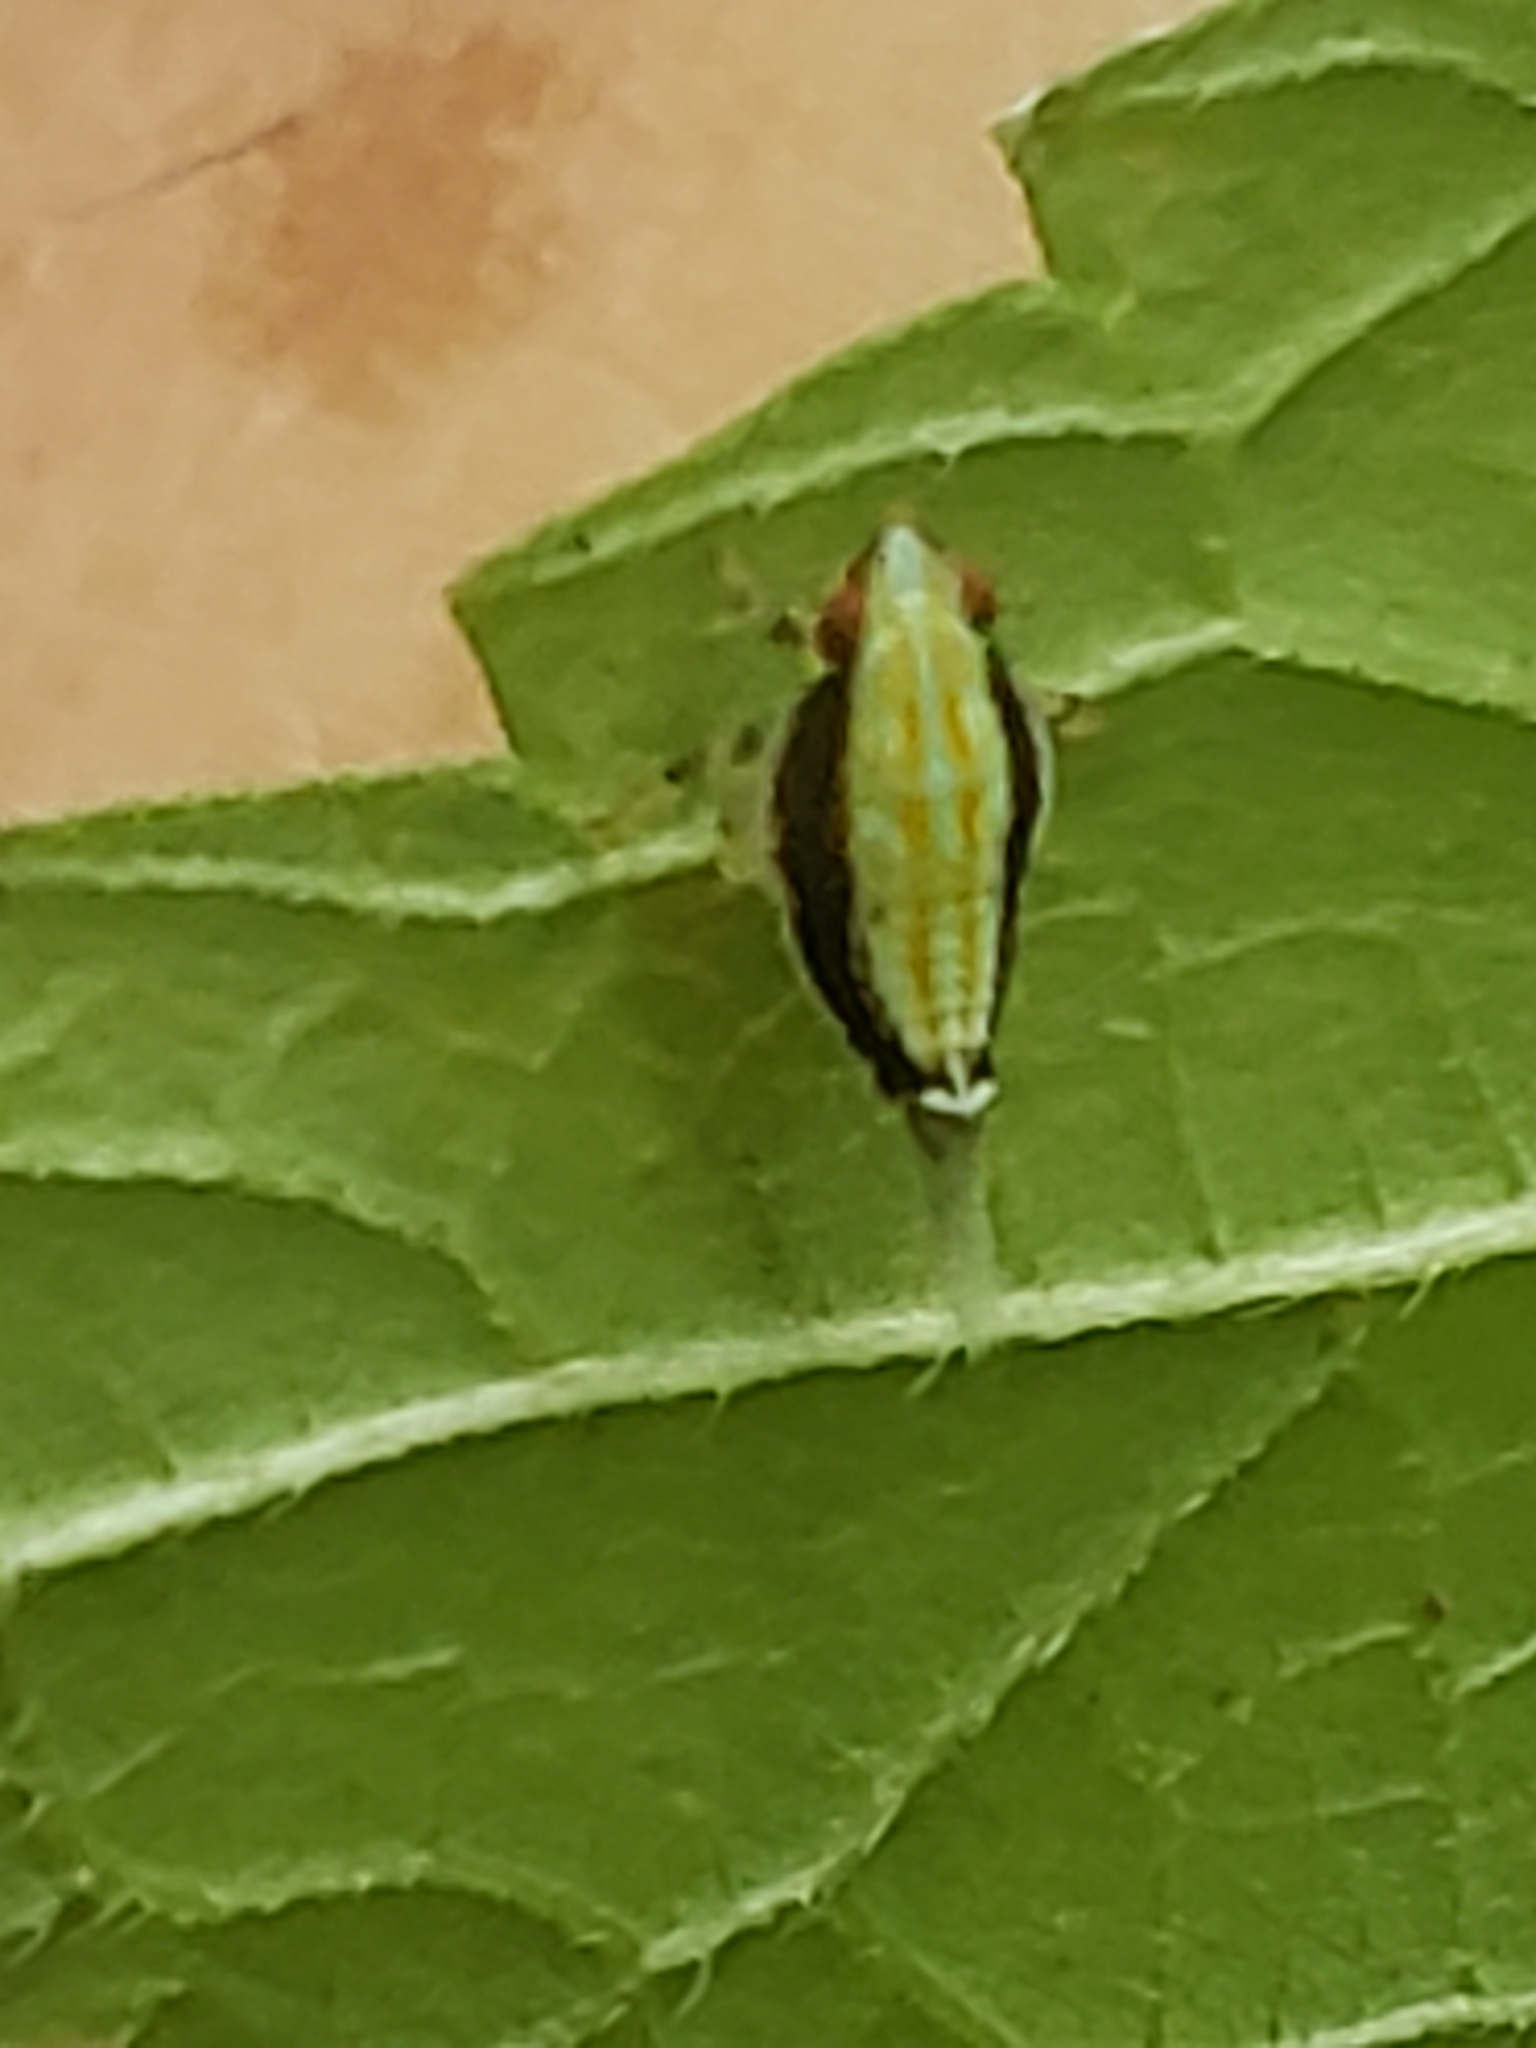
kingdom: Animalia
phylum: Arthropoda
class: Insecta
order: Hemiptera
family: Issidae
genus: Thionia
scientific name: Thionia bullata
